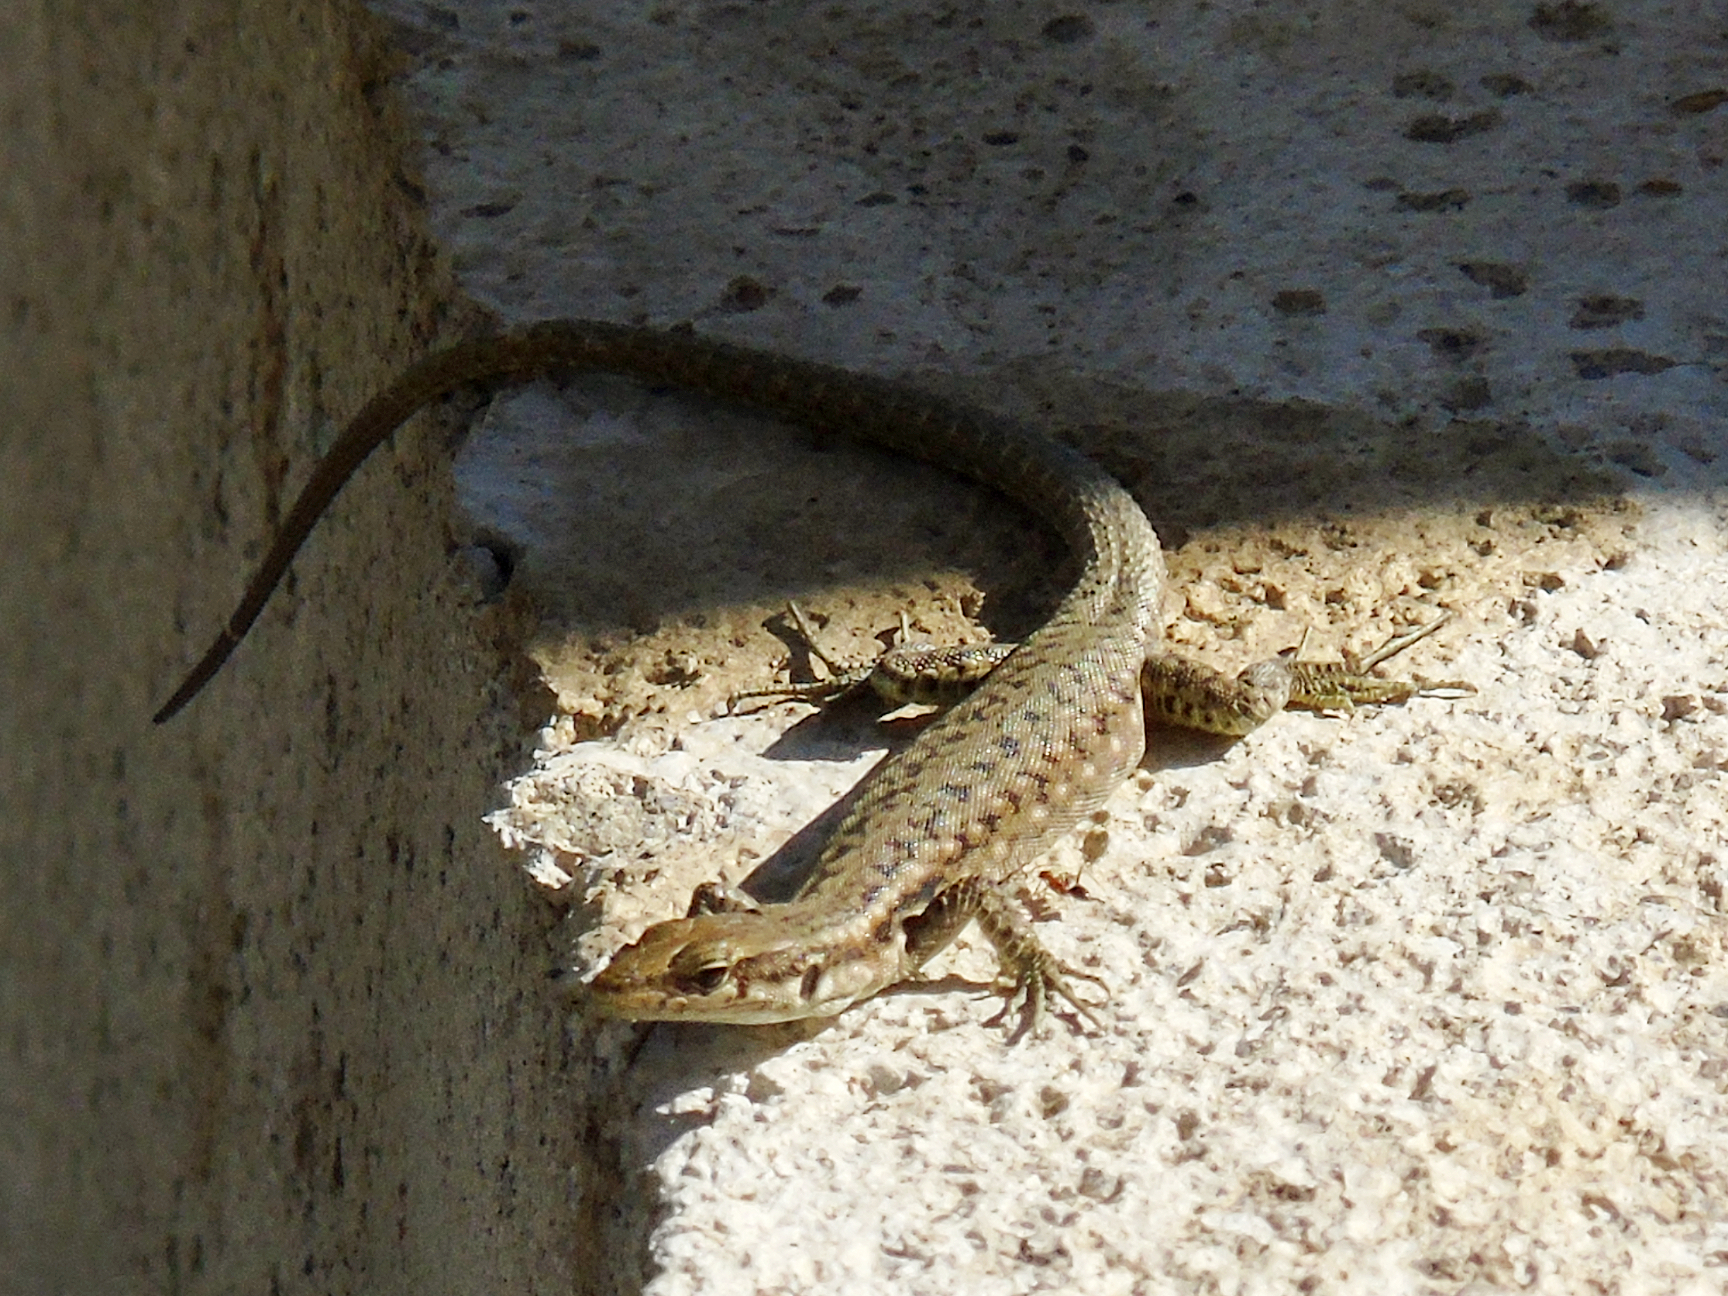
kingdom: Animalia
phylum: Chordata
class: Squamata
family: Lacertidae
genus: Darevskia
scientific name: Darevskia
